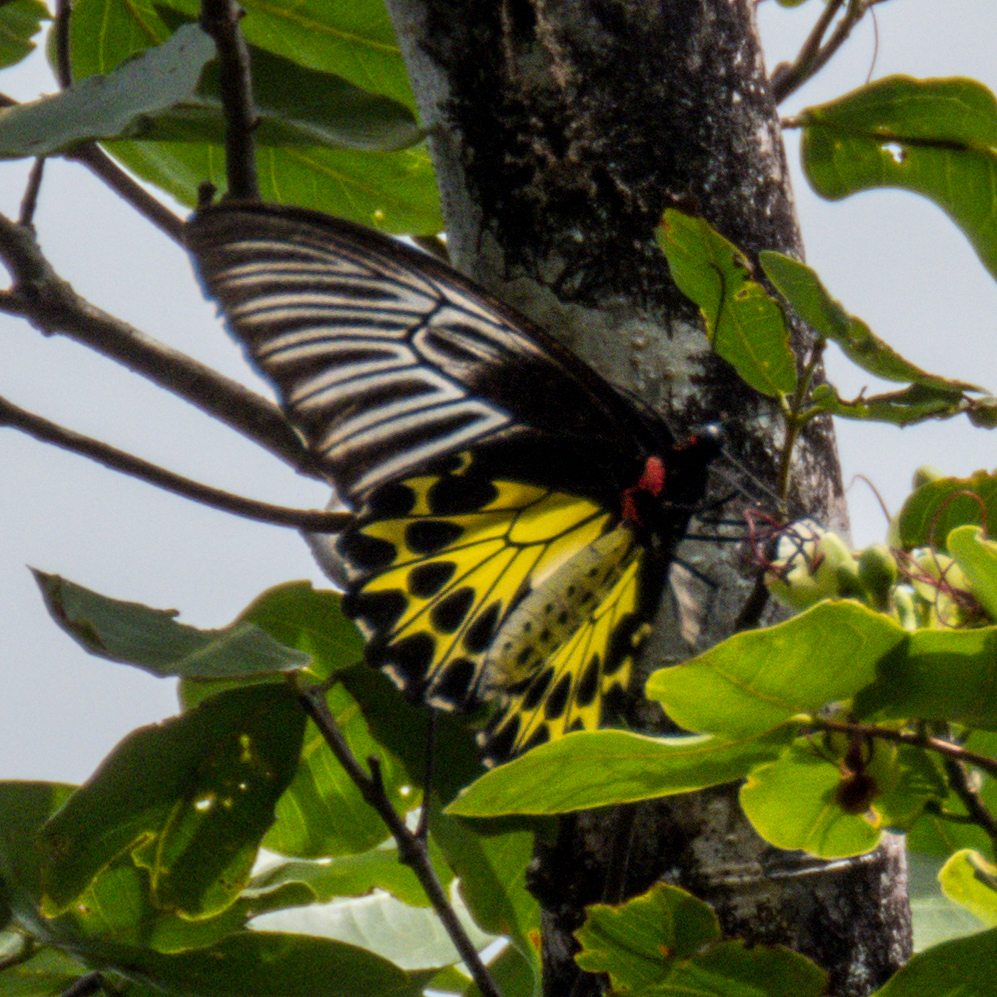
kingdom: Animalia
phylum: Arthropoda
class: Insecta
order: Lepidoptera
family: Papilionidae
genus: Troides
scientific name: Troides helena
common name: Common birdwing
